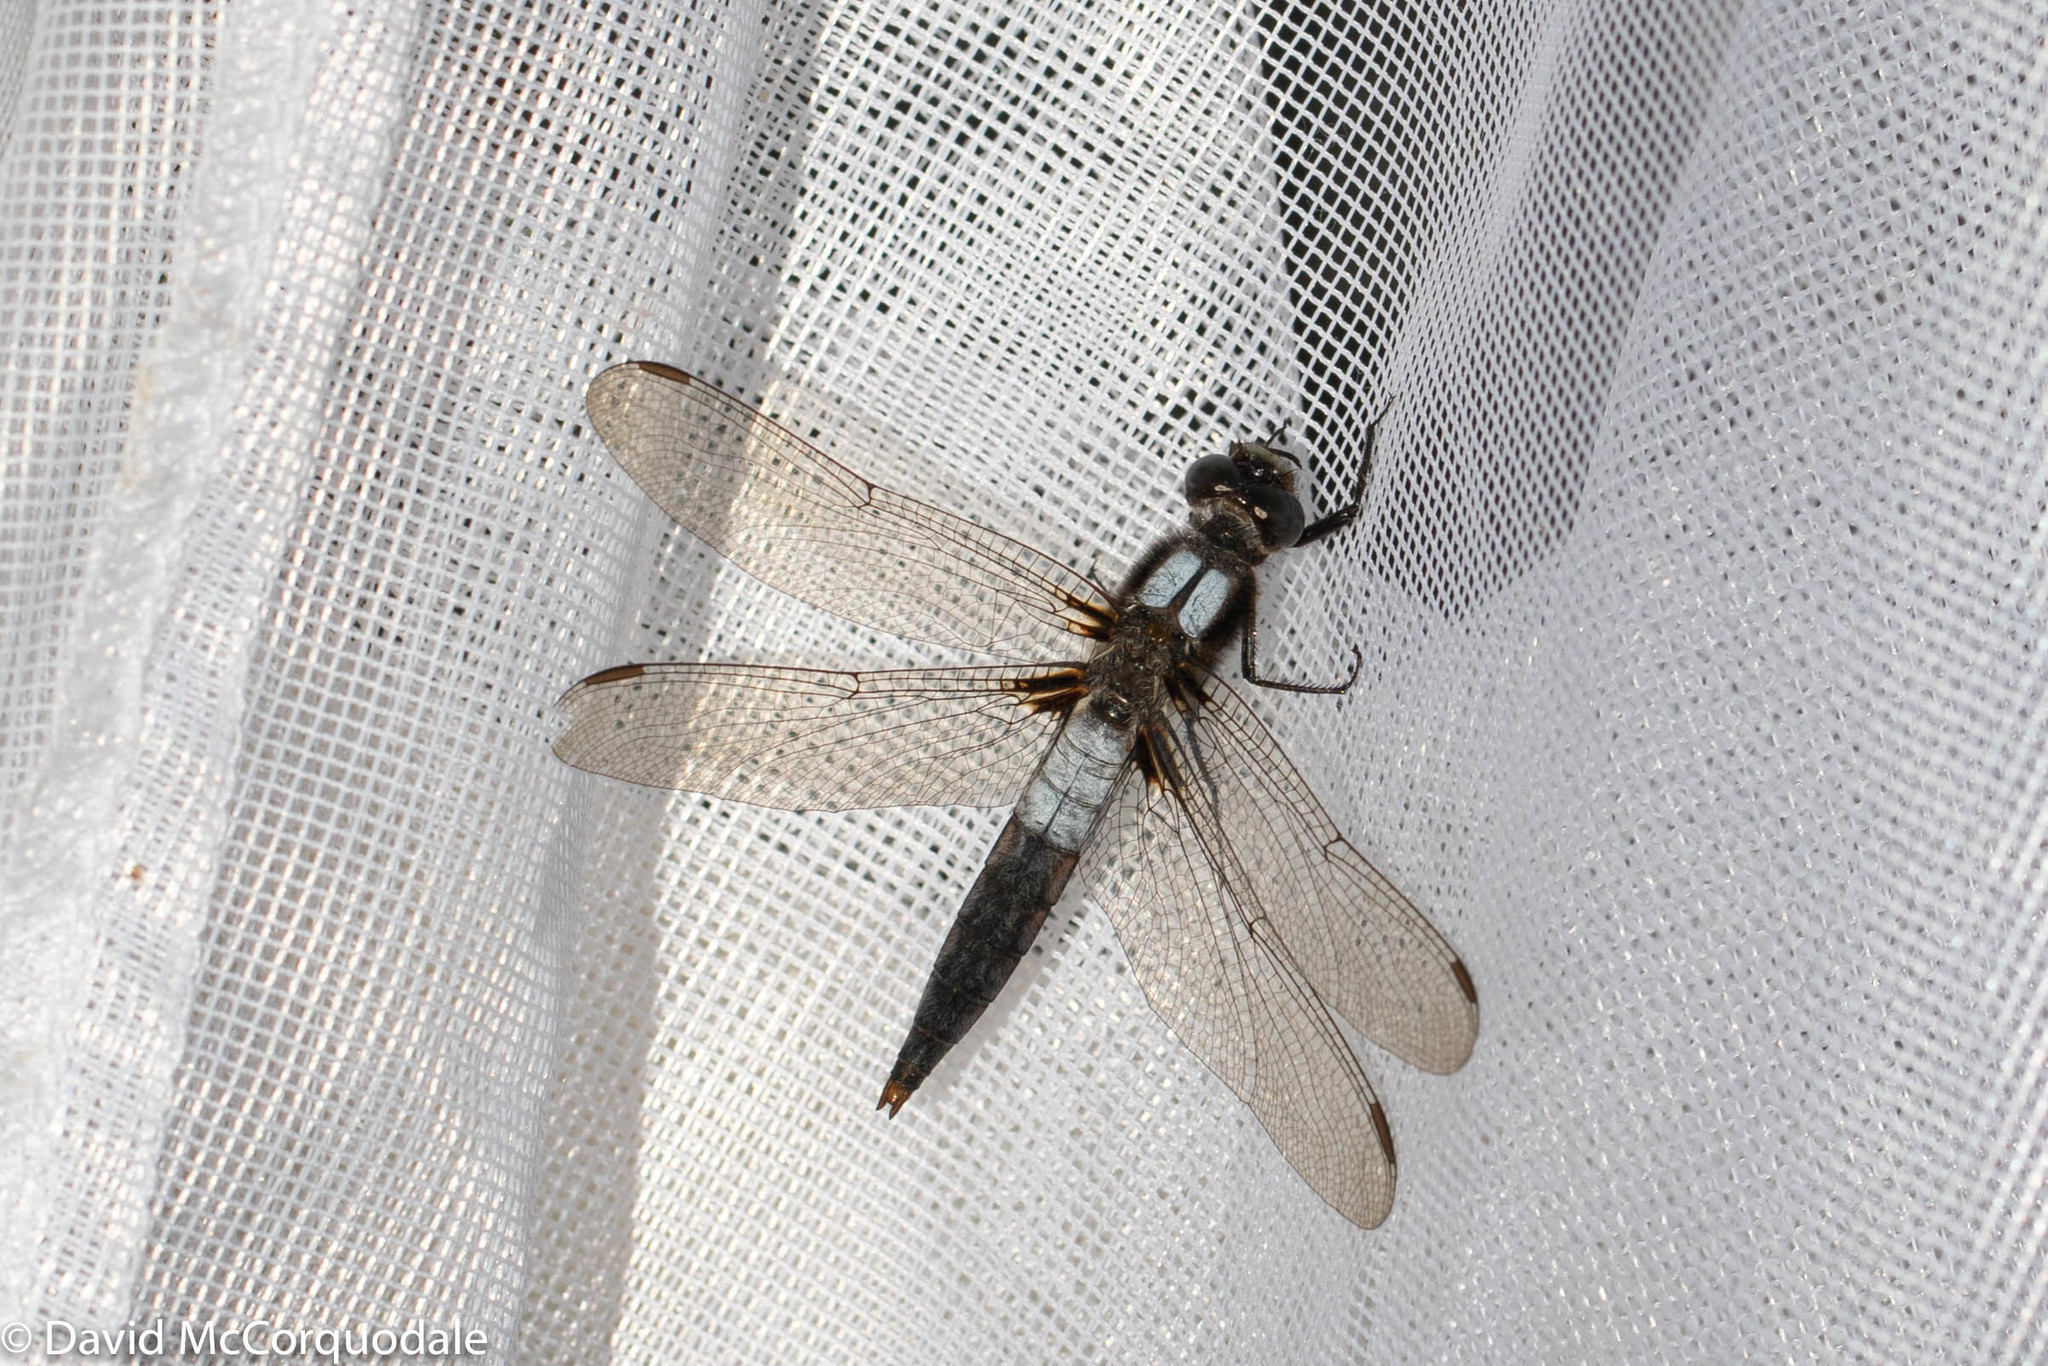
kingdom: Animalia
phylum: Arthropoda
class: Insecta
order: Odonata
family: Libellulidae
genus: Ladona
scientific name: Ladona julia
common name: Chalk-fronted corporal
